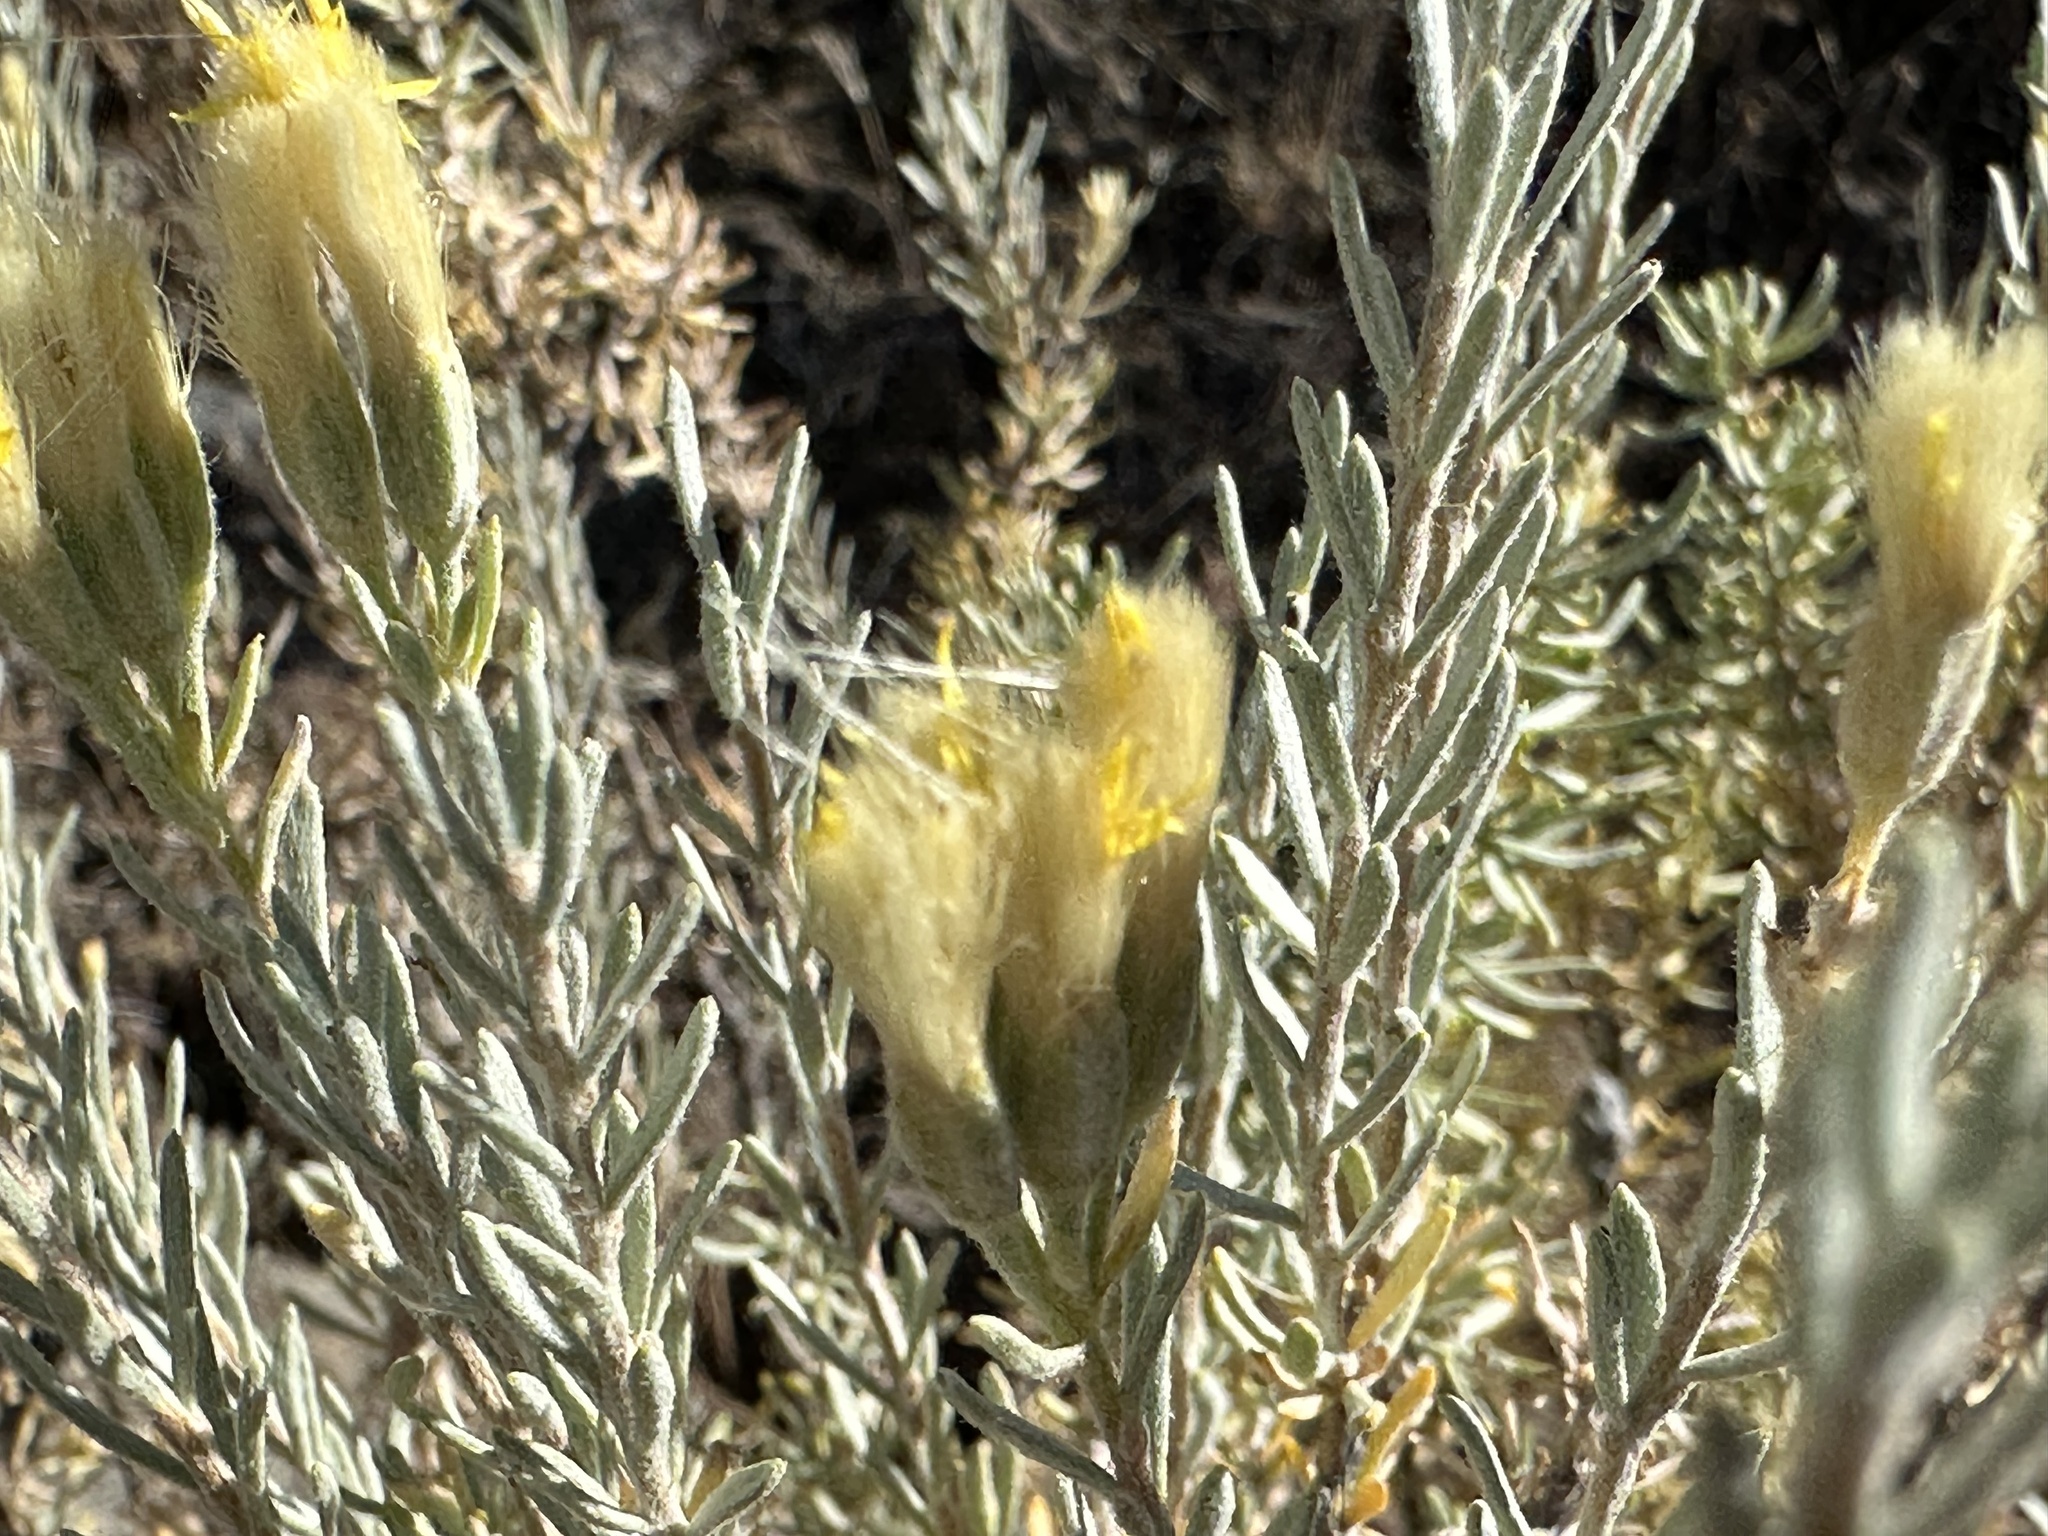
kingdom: Plantae
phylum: Tracheophyta
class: Magnoliopsida
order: Asterales
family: Asteraceae
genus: Tetradymia
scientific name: Tetradymia canescens
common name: Spineless horsebrush
